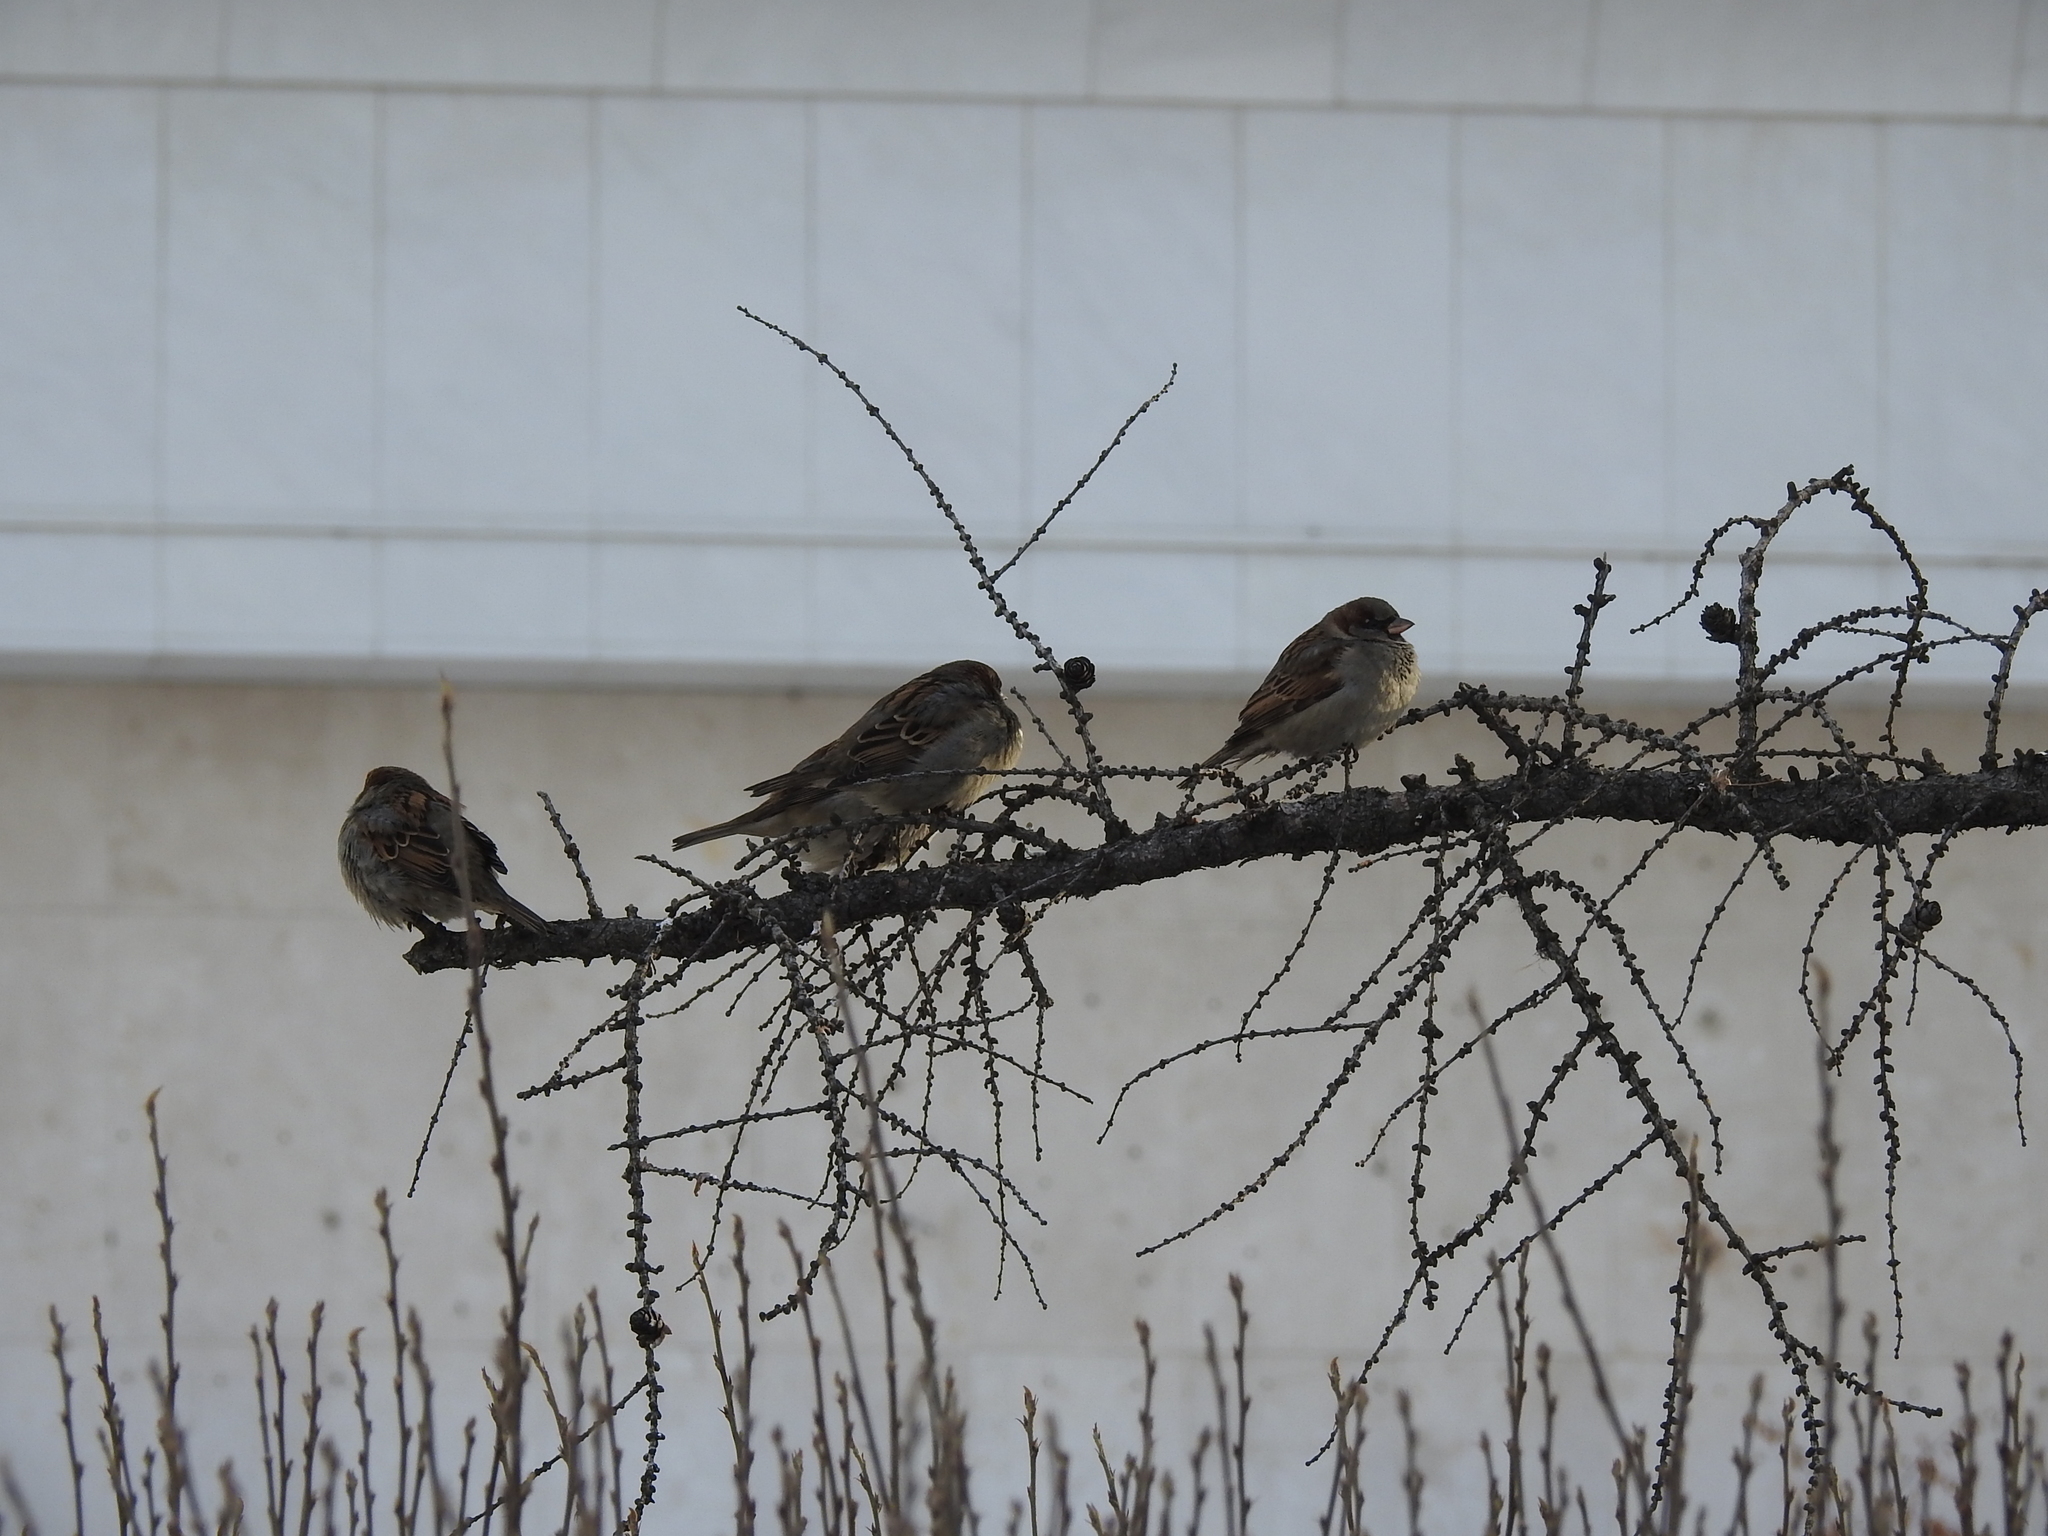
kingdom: Animalia
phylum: Chordata
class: Aves
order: Passeriformes
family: Passeridae
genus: Passer
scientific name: Passer domesticus
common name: House sparrow
